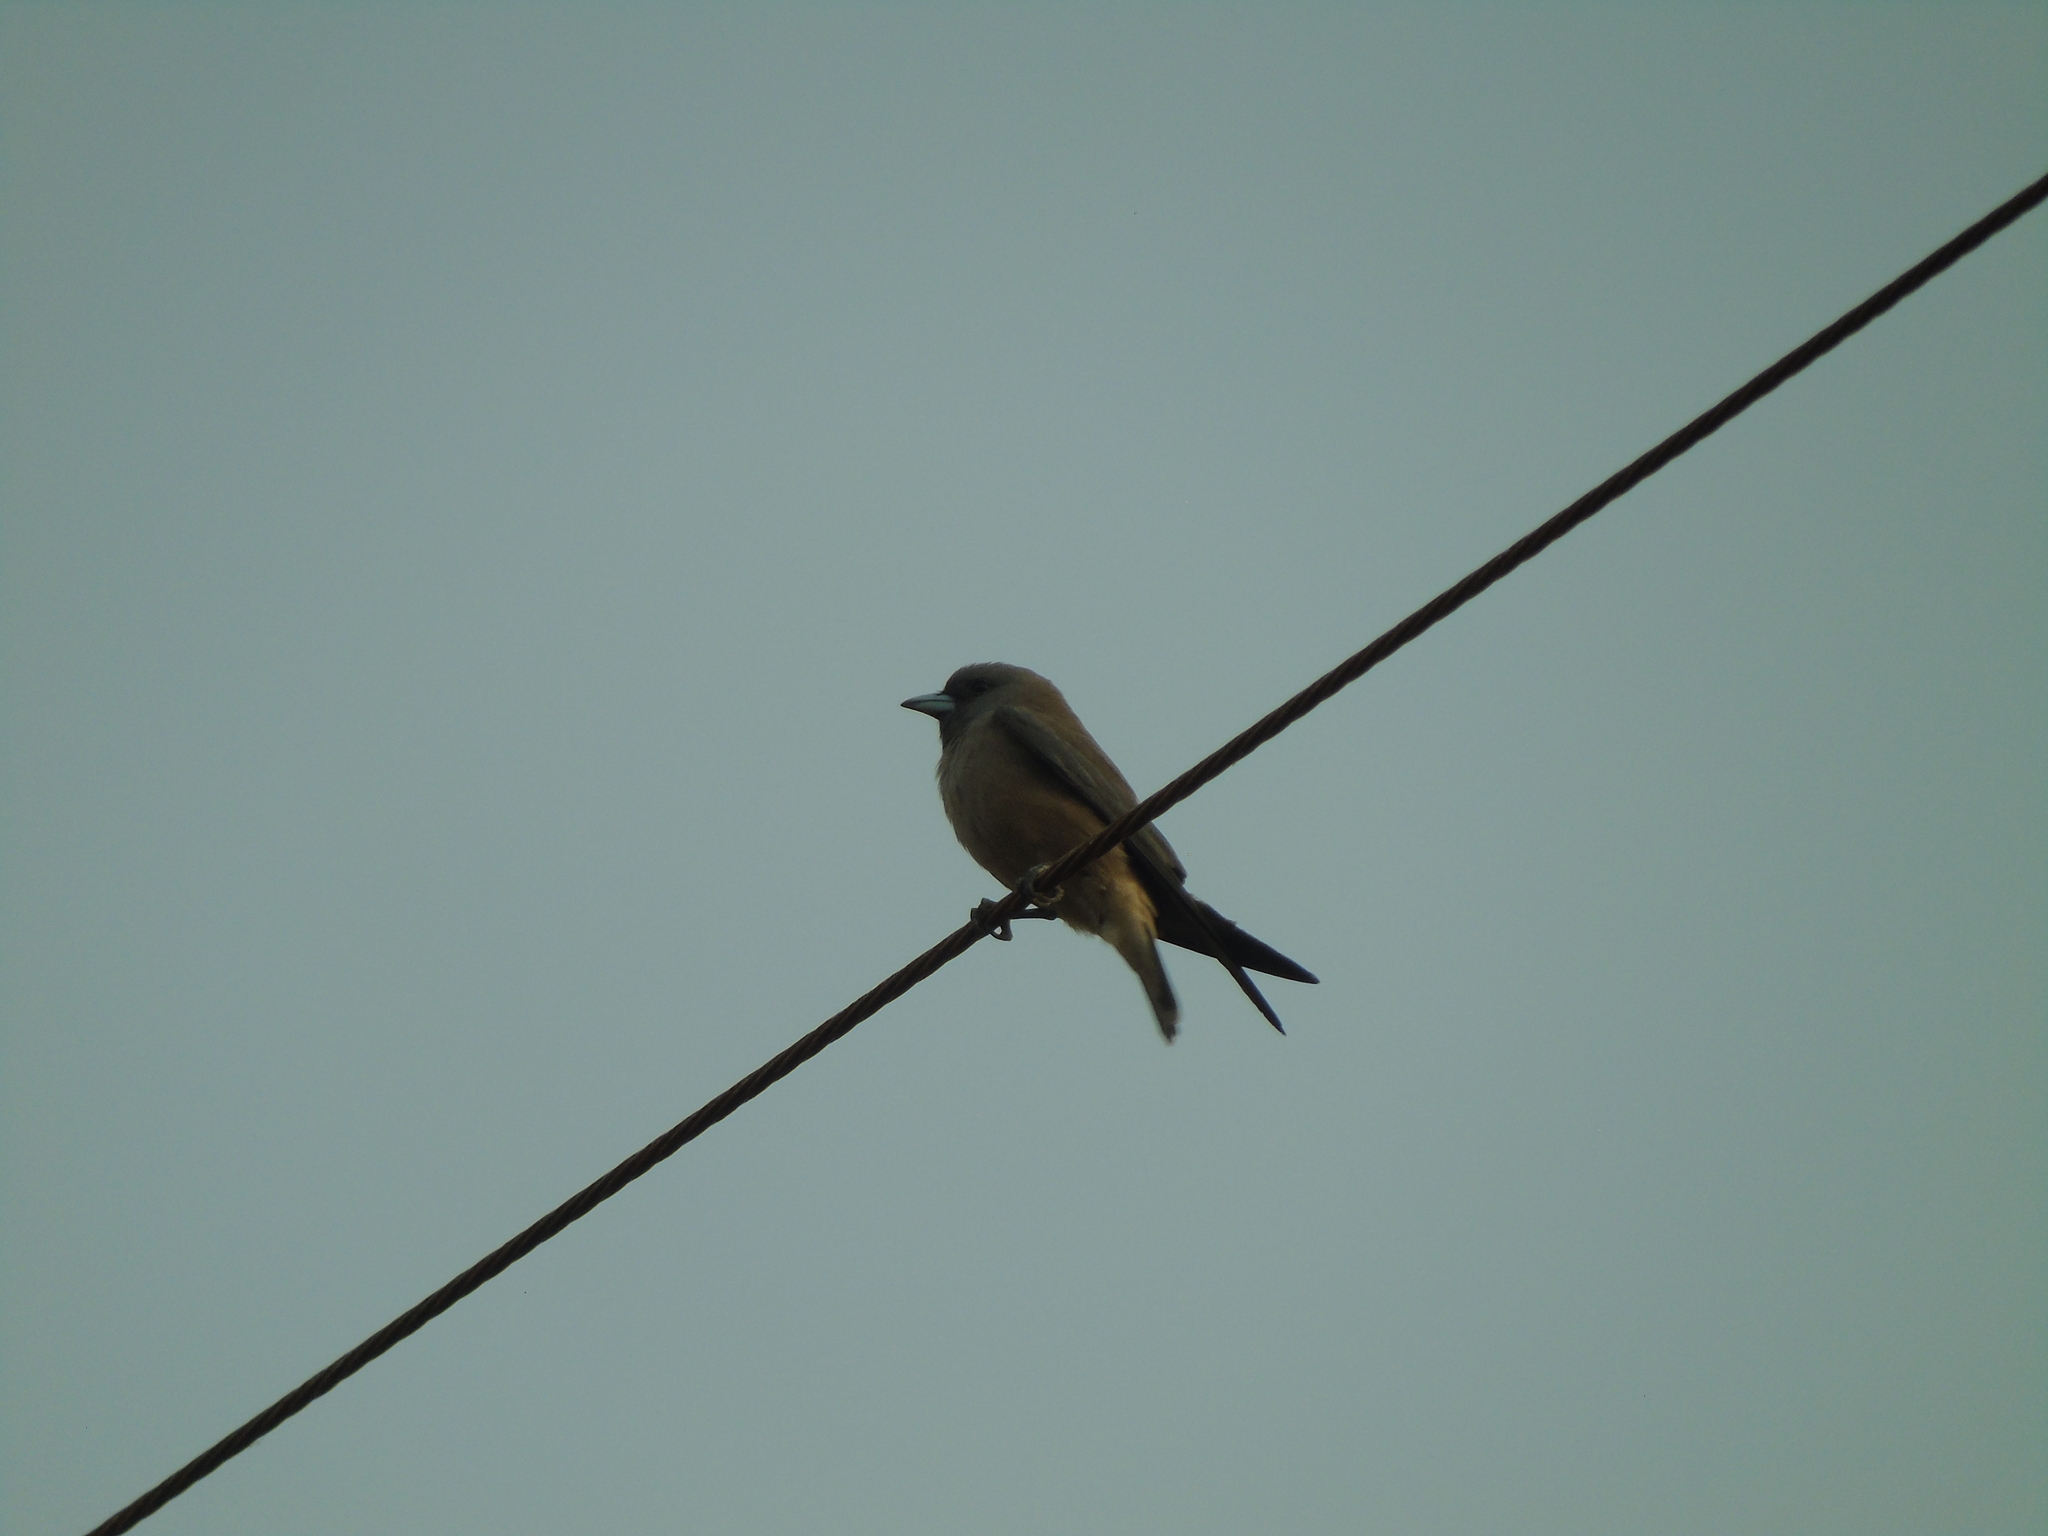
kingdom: Animalia
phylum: Chordata
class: Aves
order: Passeriformes
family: Artamidae
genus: Artamus
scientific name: Artamus fuscus
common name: Ashy woodswallow
